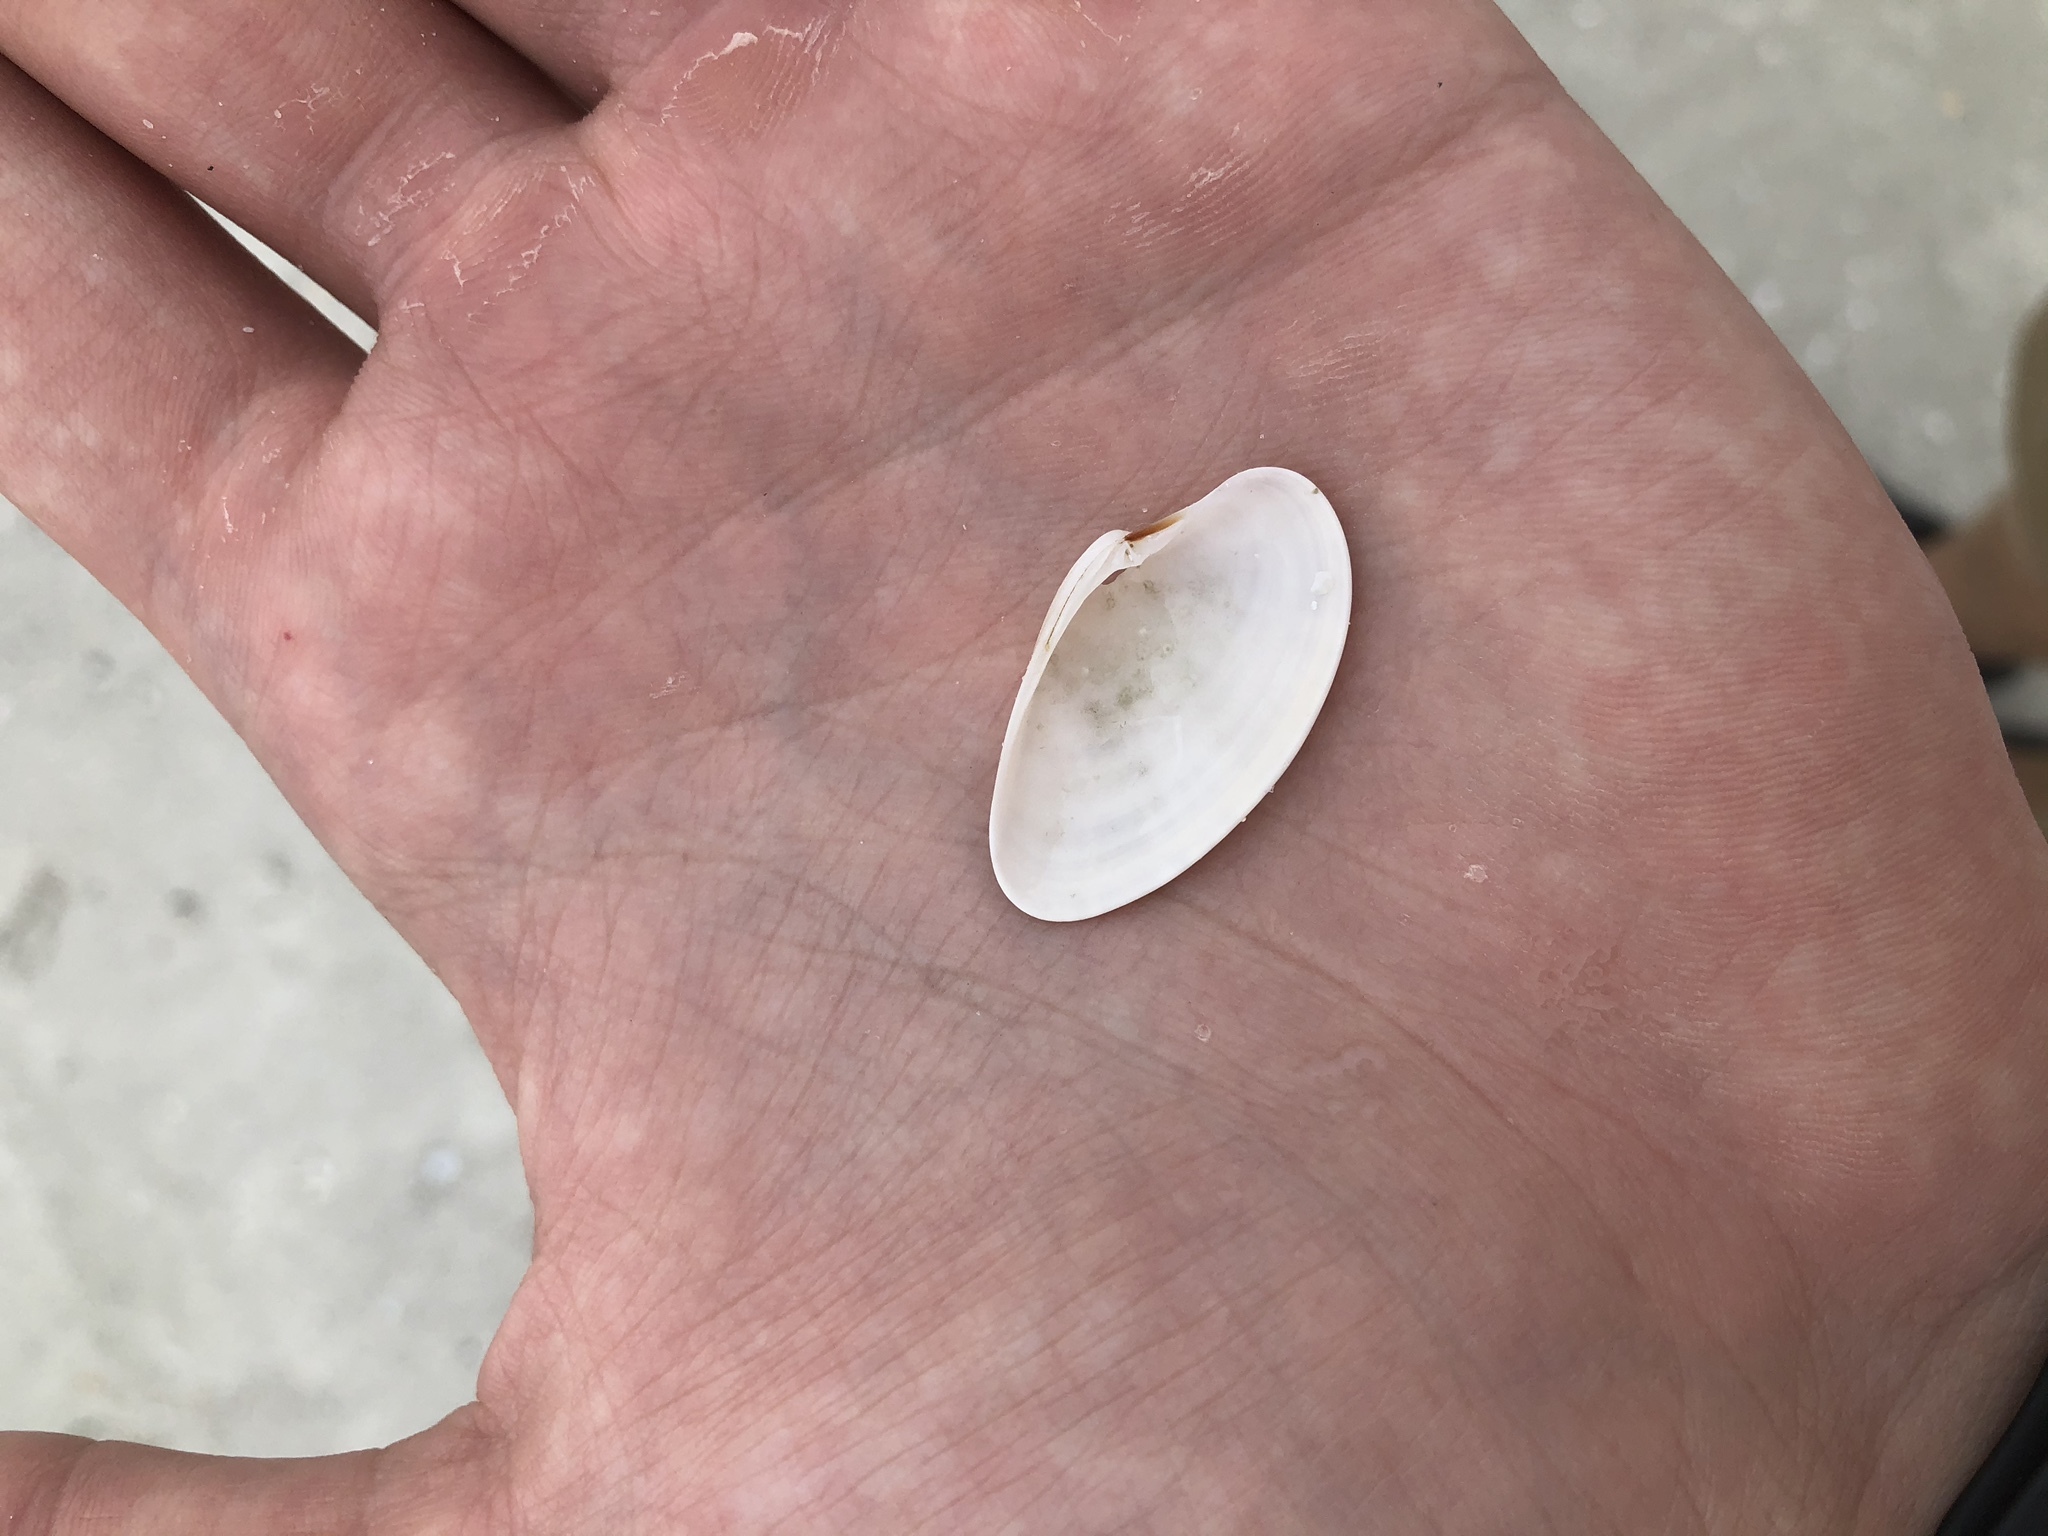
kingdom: Animalia
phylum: Mollusca
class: Bivalvia
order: Venerida
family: Veneridae
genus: Macrocallista
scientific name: Macrocallista nimbosa
